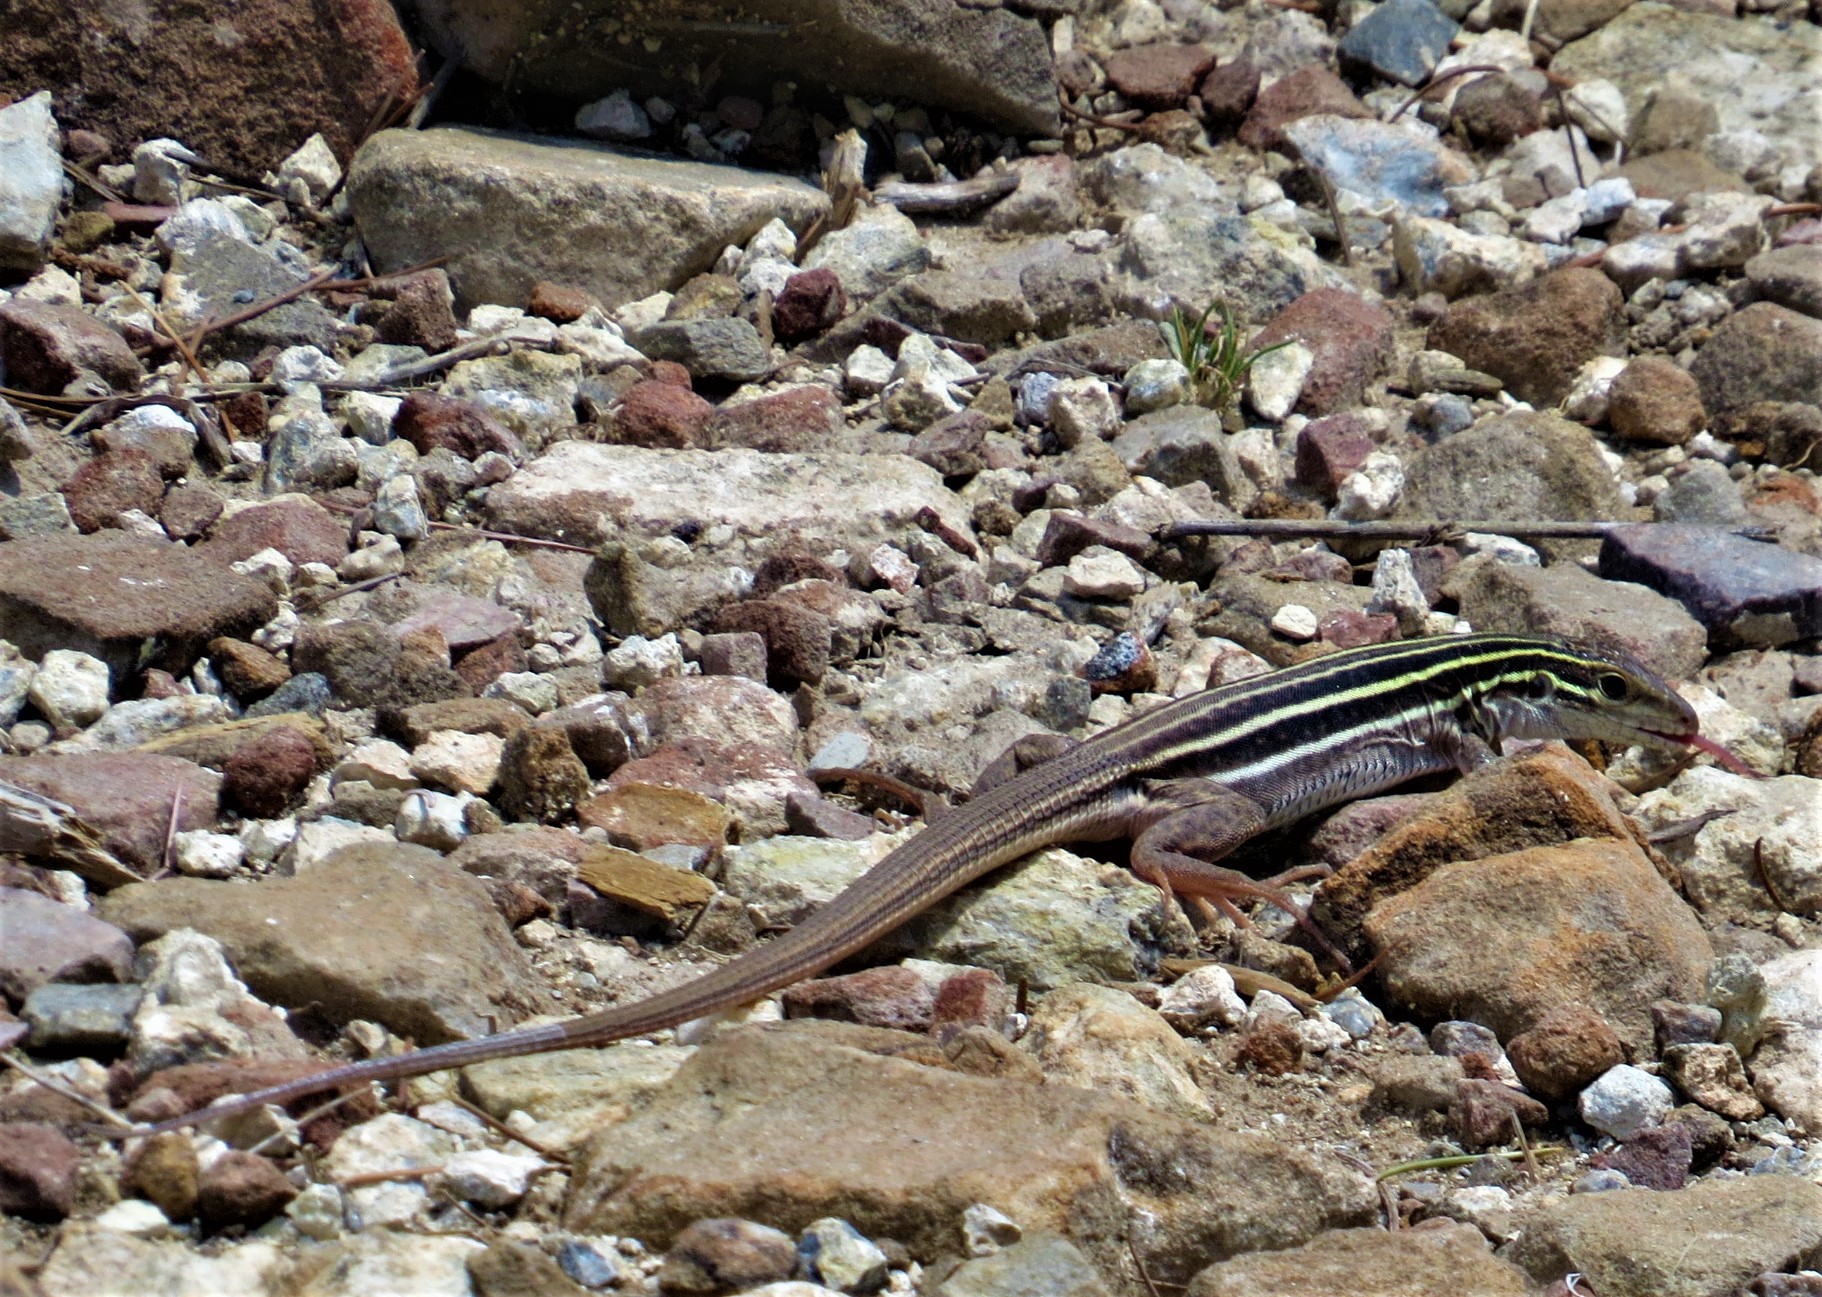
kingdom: Animalia
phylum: Chordata
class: Squamata
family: Teiidae
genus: Aspidoscelis
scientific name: Aspidoscelis uniparens
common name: Desert grassland whiptail
